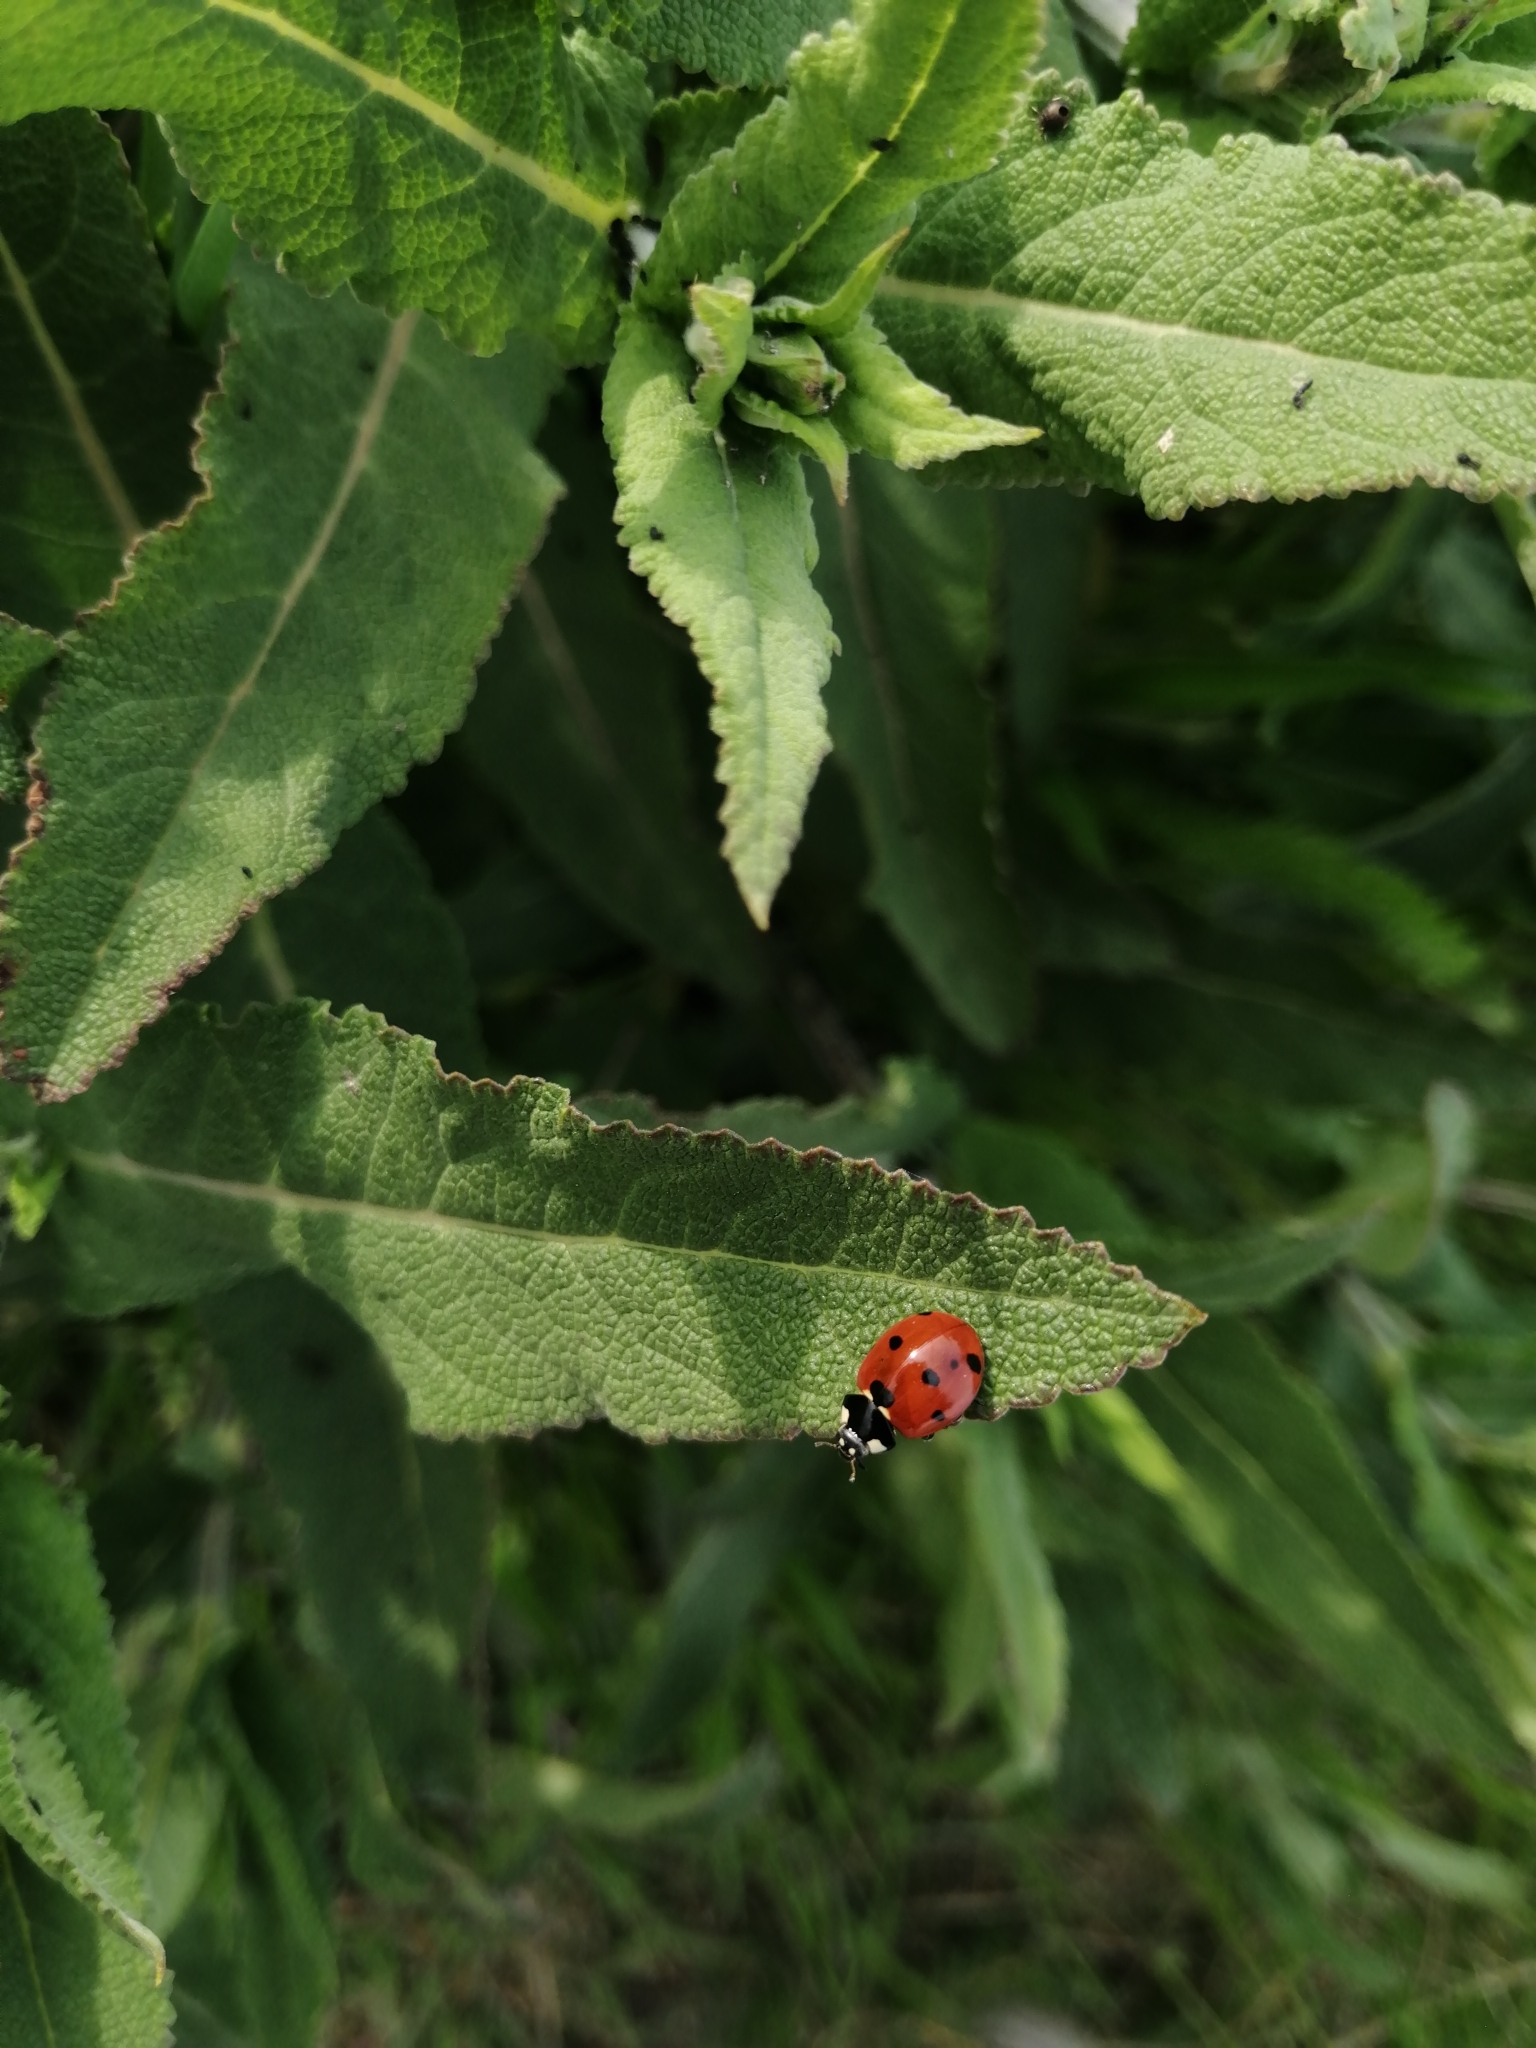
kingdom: Animalia
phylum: Arthropoda
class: Insecta
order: Coleoptera
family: Coccinellidae
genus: Coccinella
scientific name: Coccinella septempunctata
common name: Sevenspotted lady beetle
